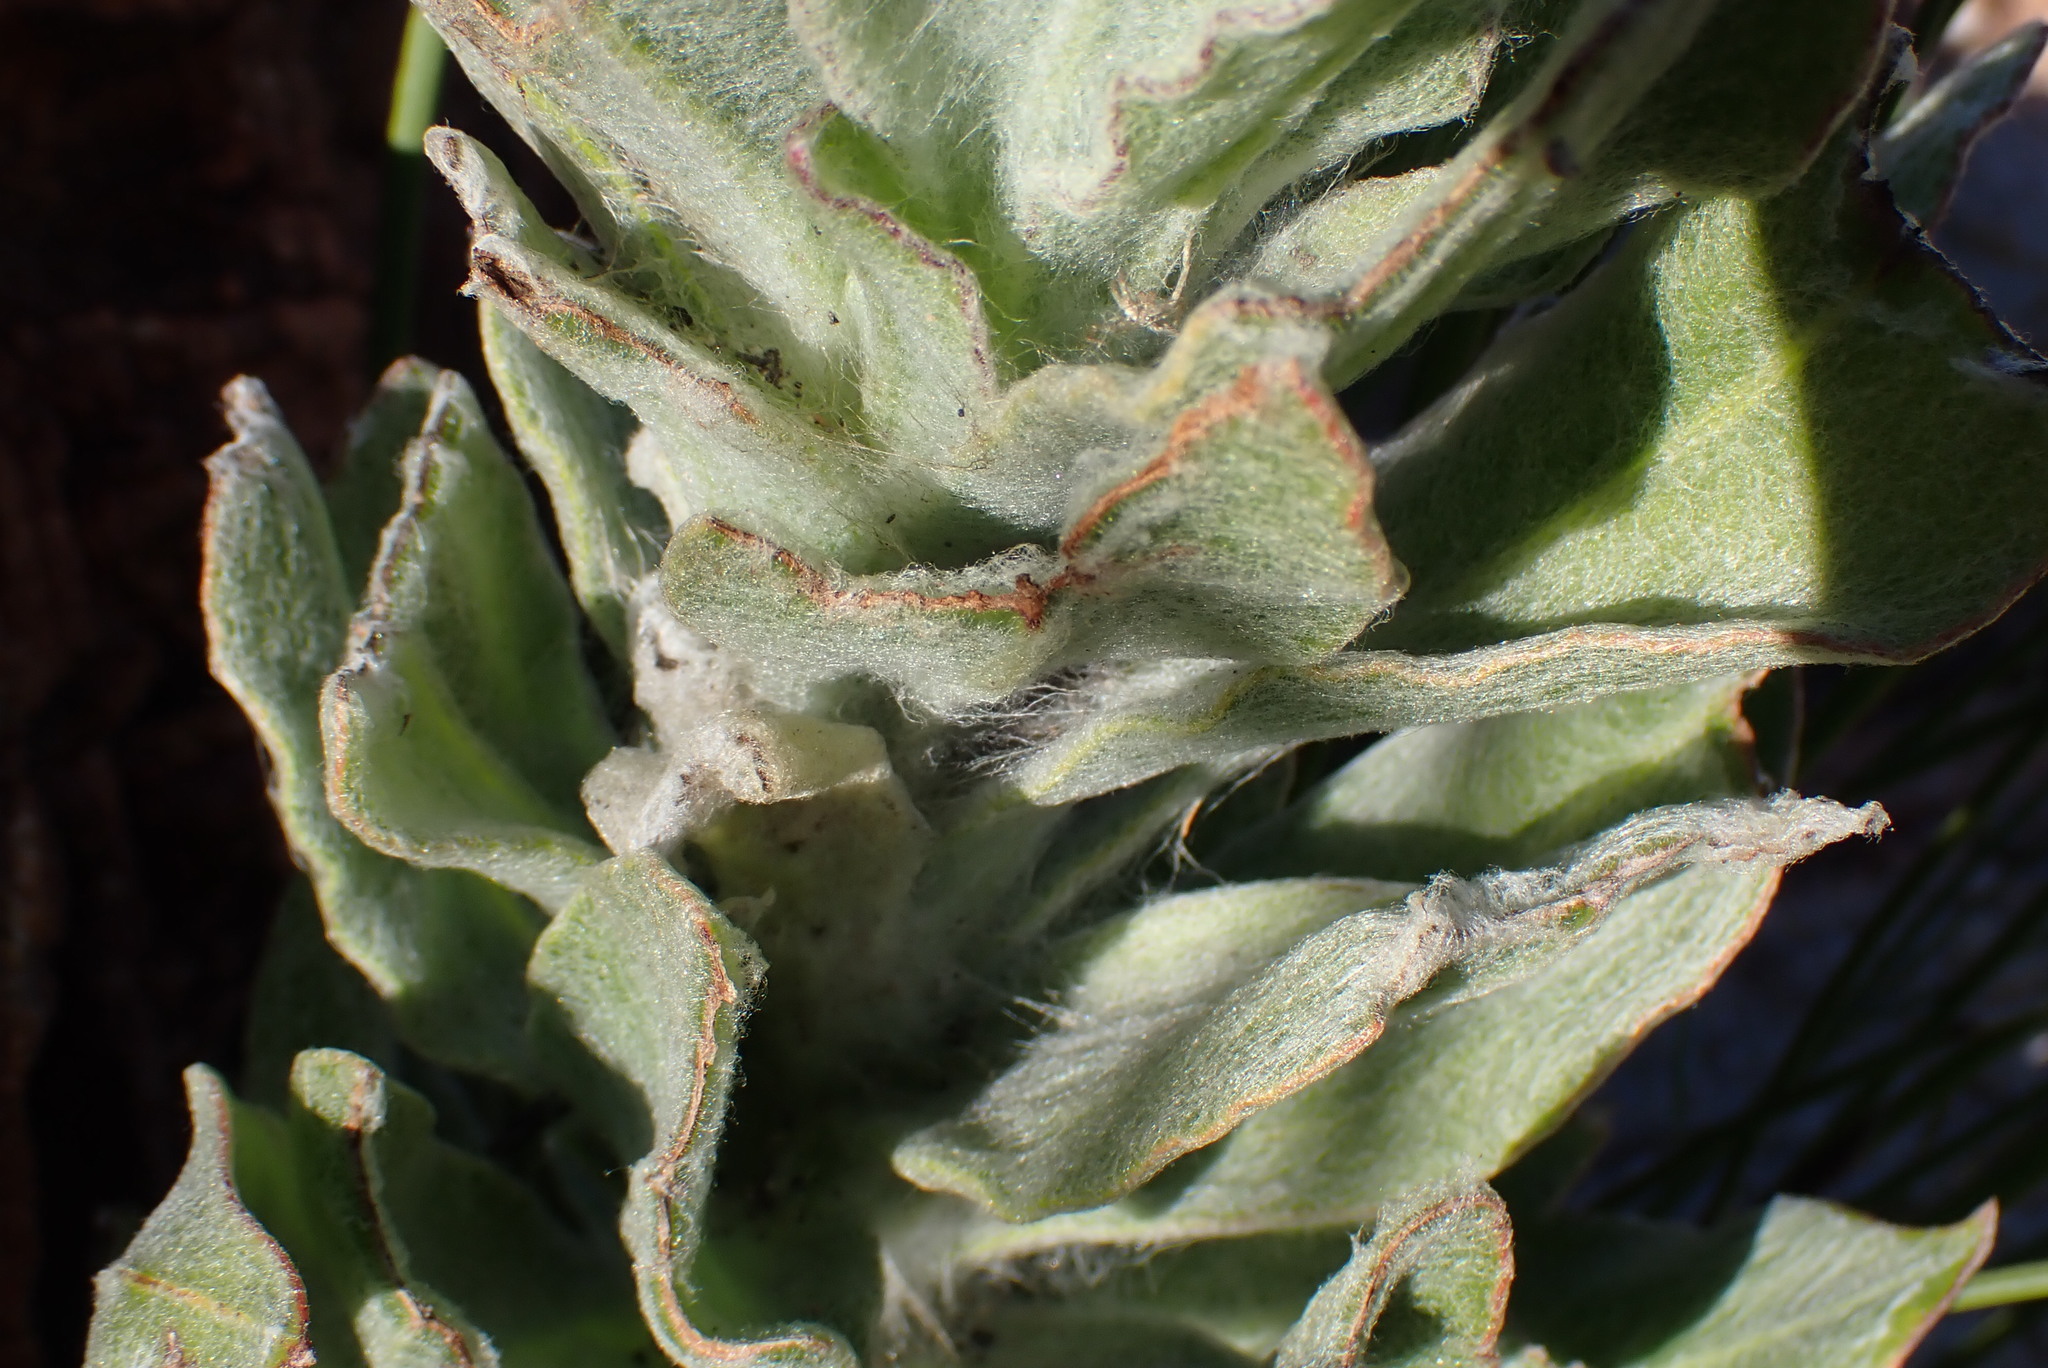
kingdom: Plantae
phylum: Tracheophyta
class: Magnoliopsida
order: Asterales
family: Asteraceae
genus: Syncarpha
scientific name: Syncarpha milleflora
